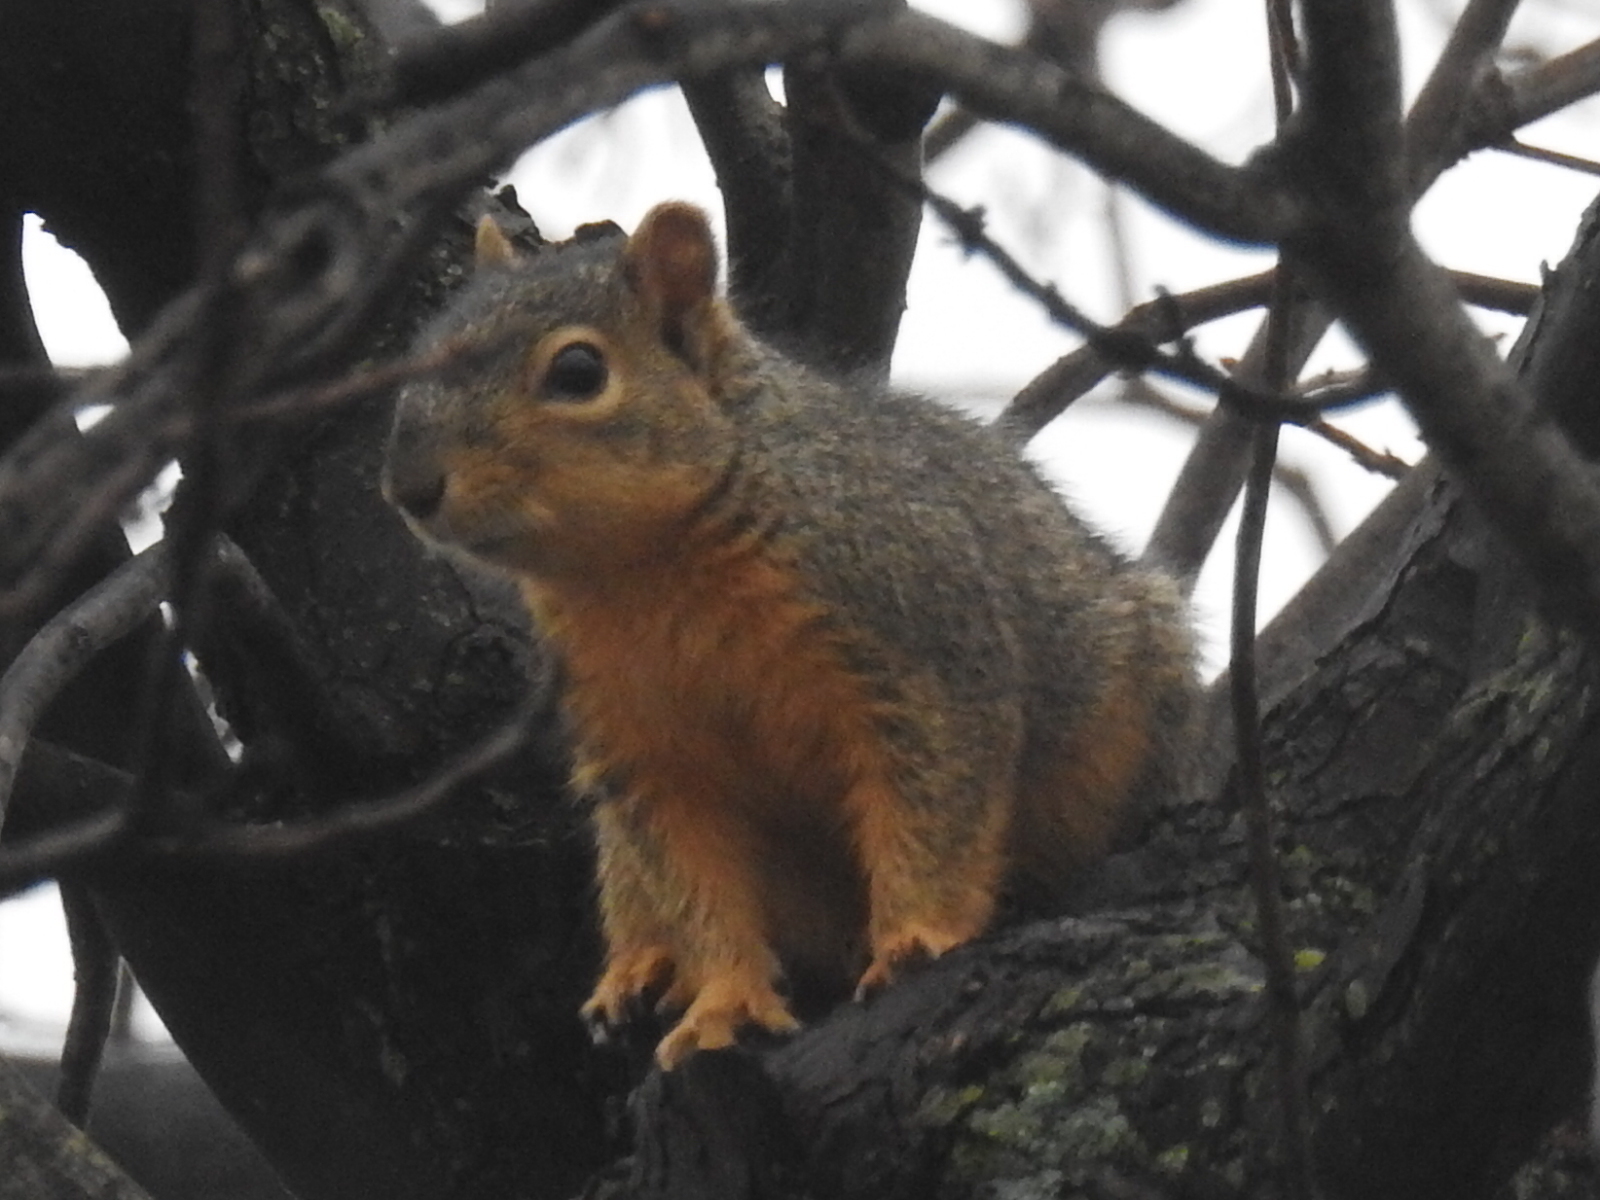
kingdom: Animalia
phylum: Chordata
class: Mammalia
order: Rodentia
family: Sciuridae
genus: Sciurus
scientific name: Sciurus niger
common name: Fox squirrel
